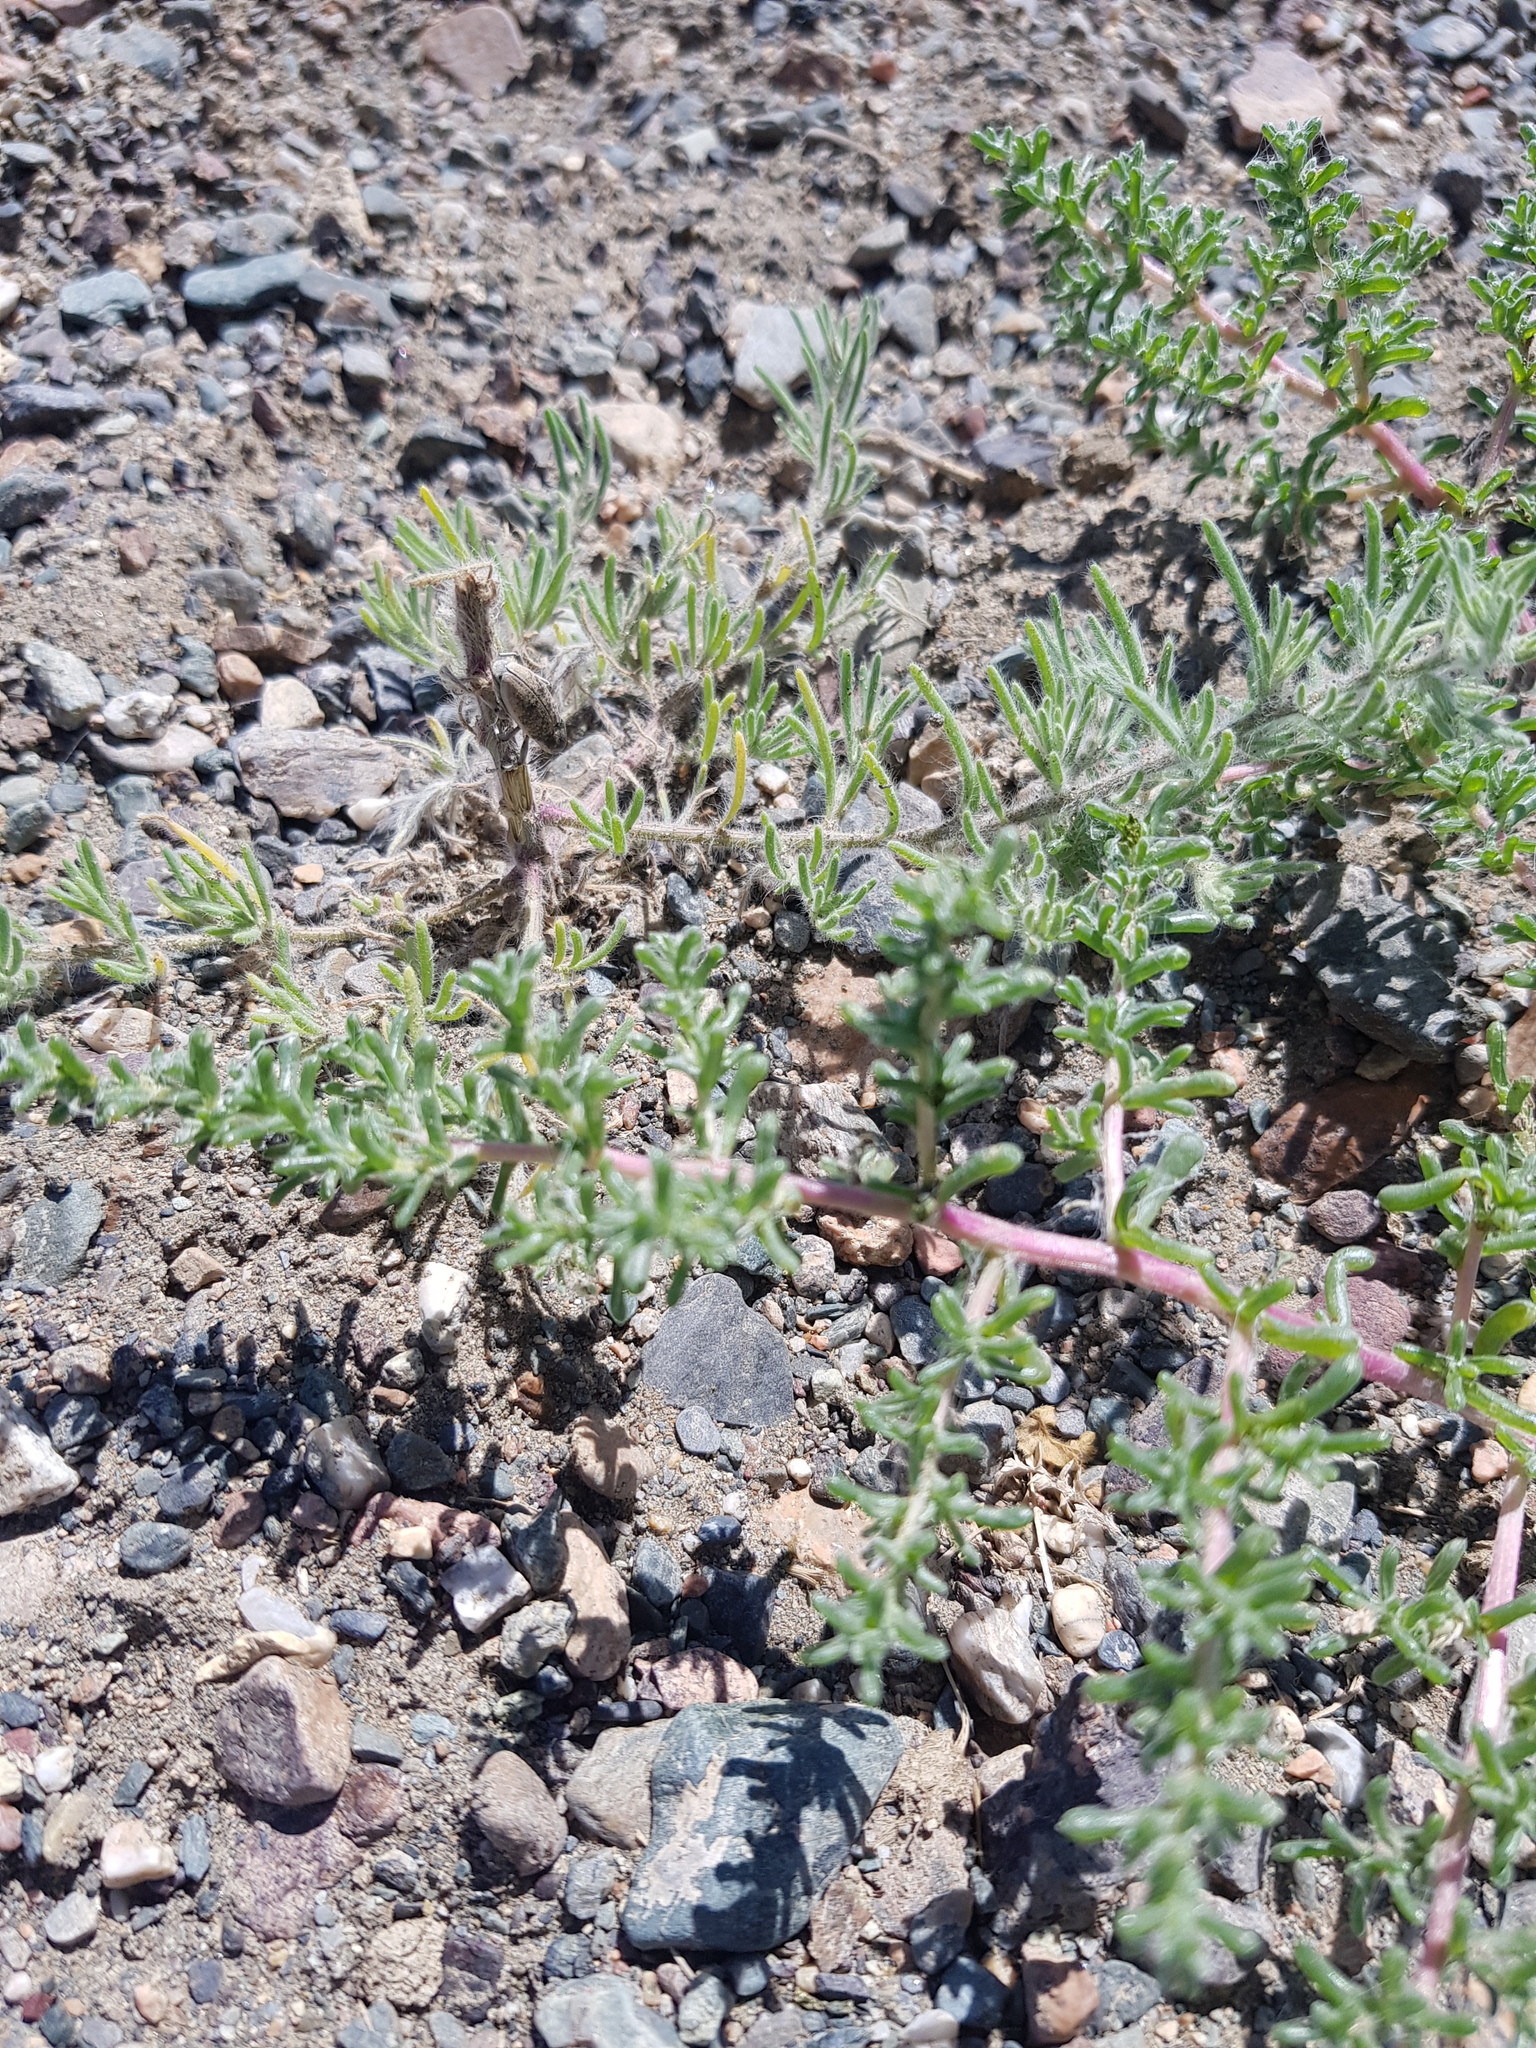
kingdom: Plantae
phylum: Tracheophyta
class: Magnoliopsida
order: Caryophyllales
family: Amaranthaceae
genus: Halogeton
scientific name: Halogeton arachnoides
